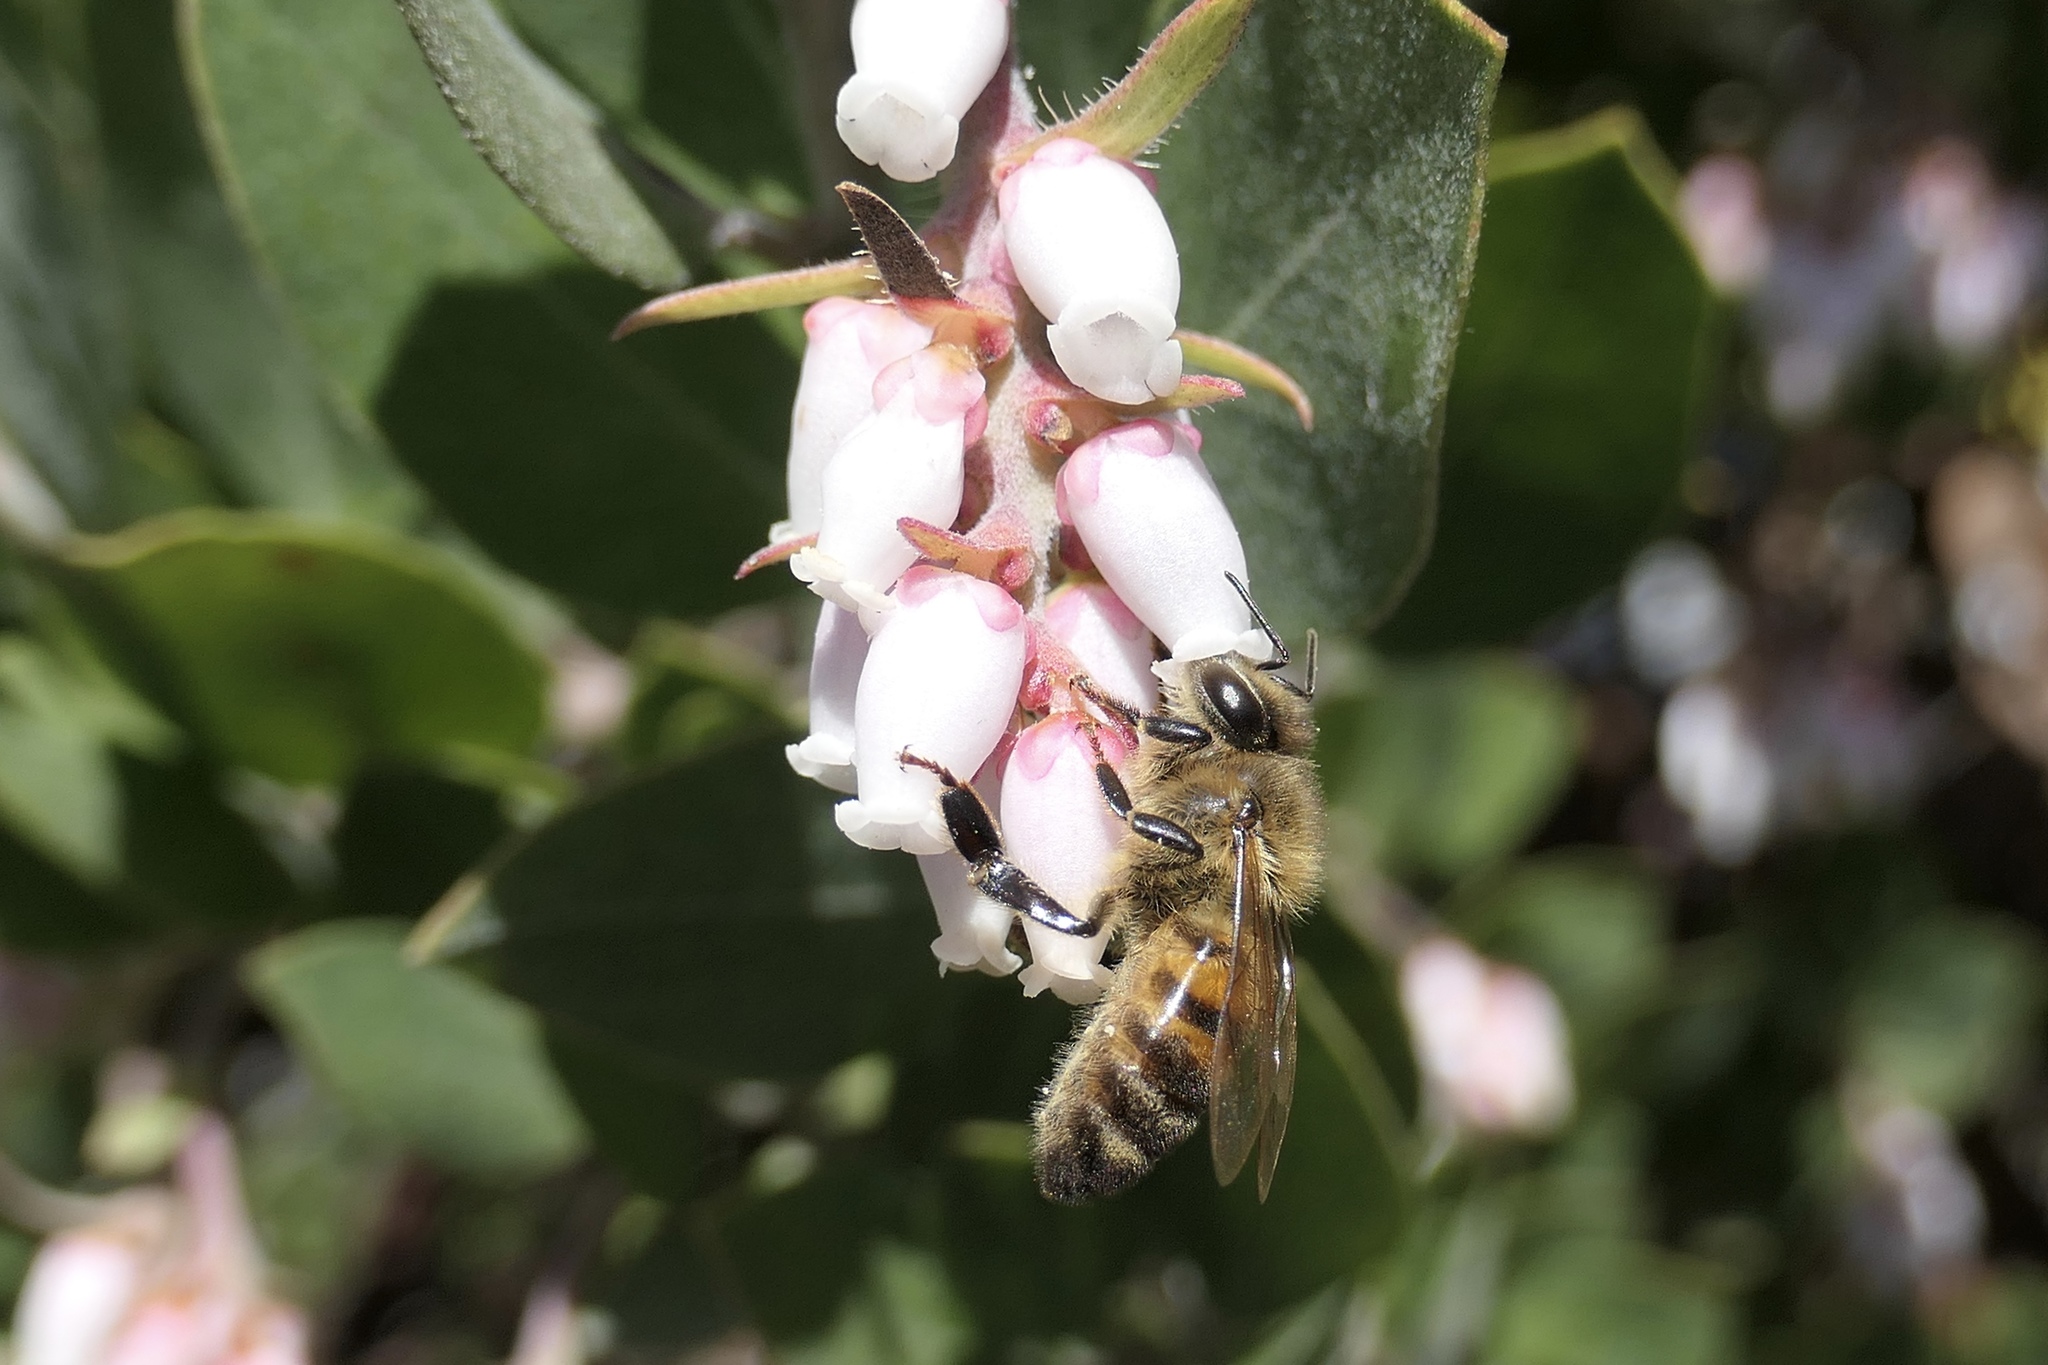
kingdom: Animalia
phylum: Arthropoda
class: Insecta
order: Hymenoptera
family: Apidae
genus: Apis
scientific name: Apis mellifera
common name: Honey bee
